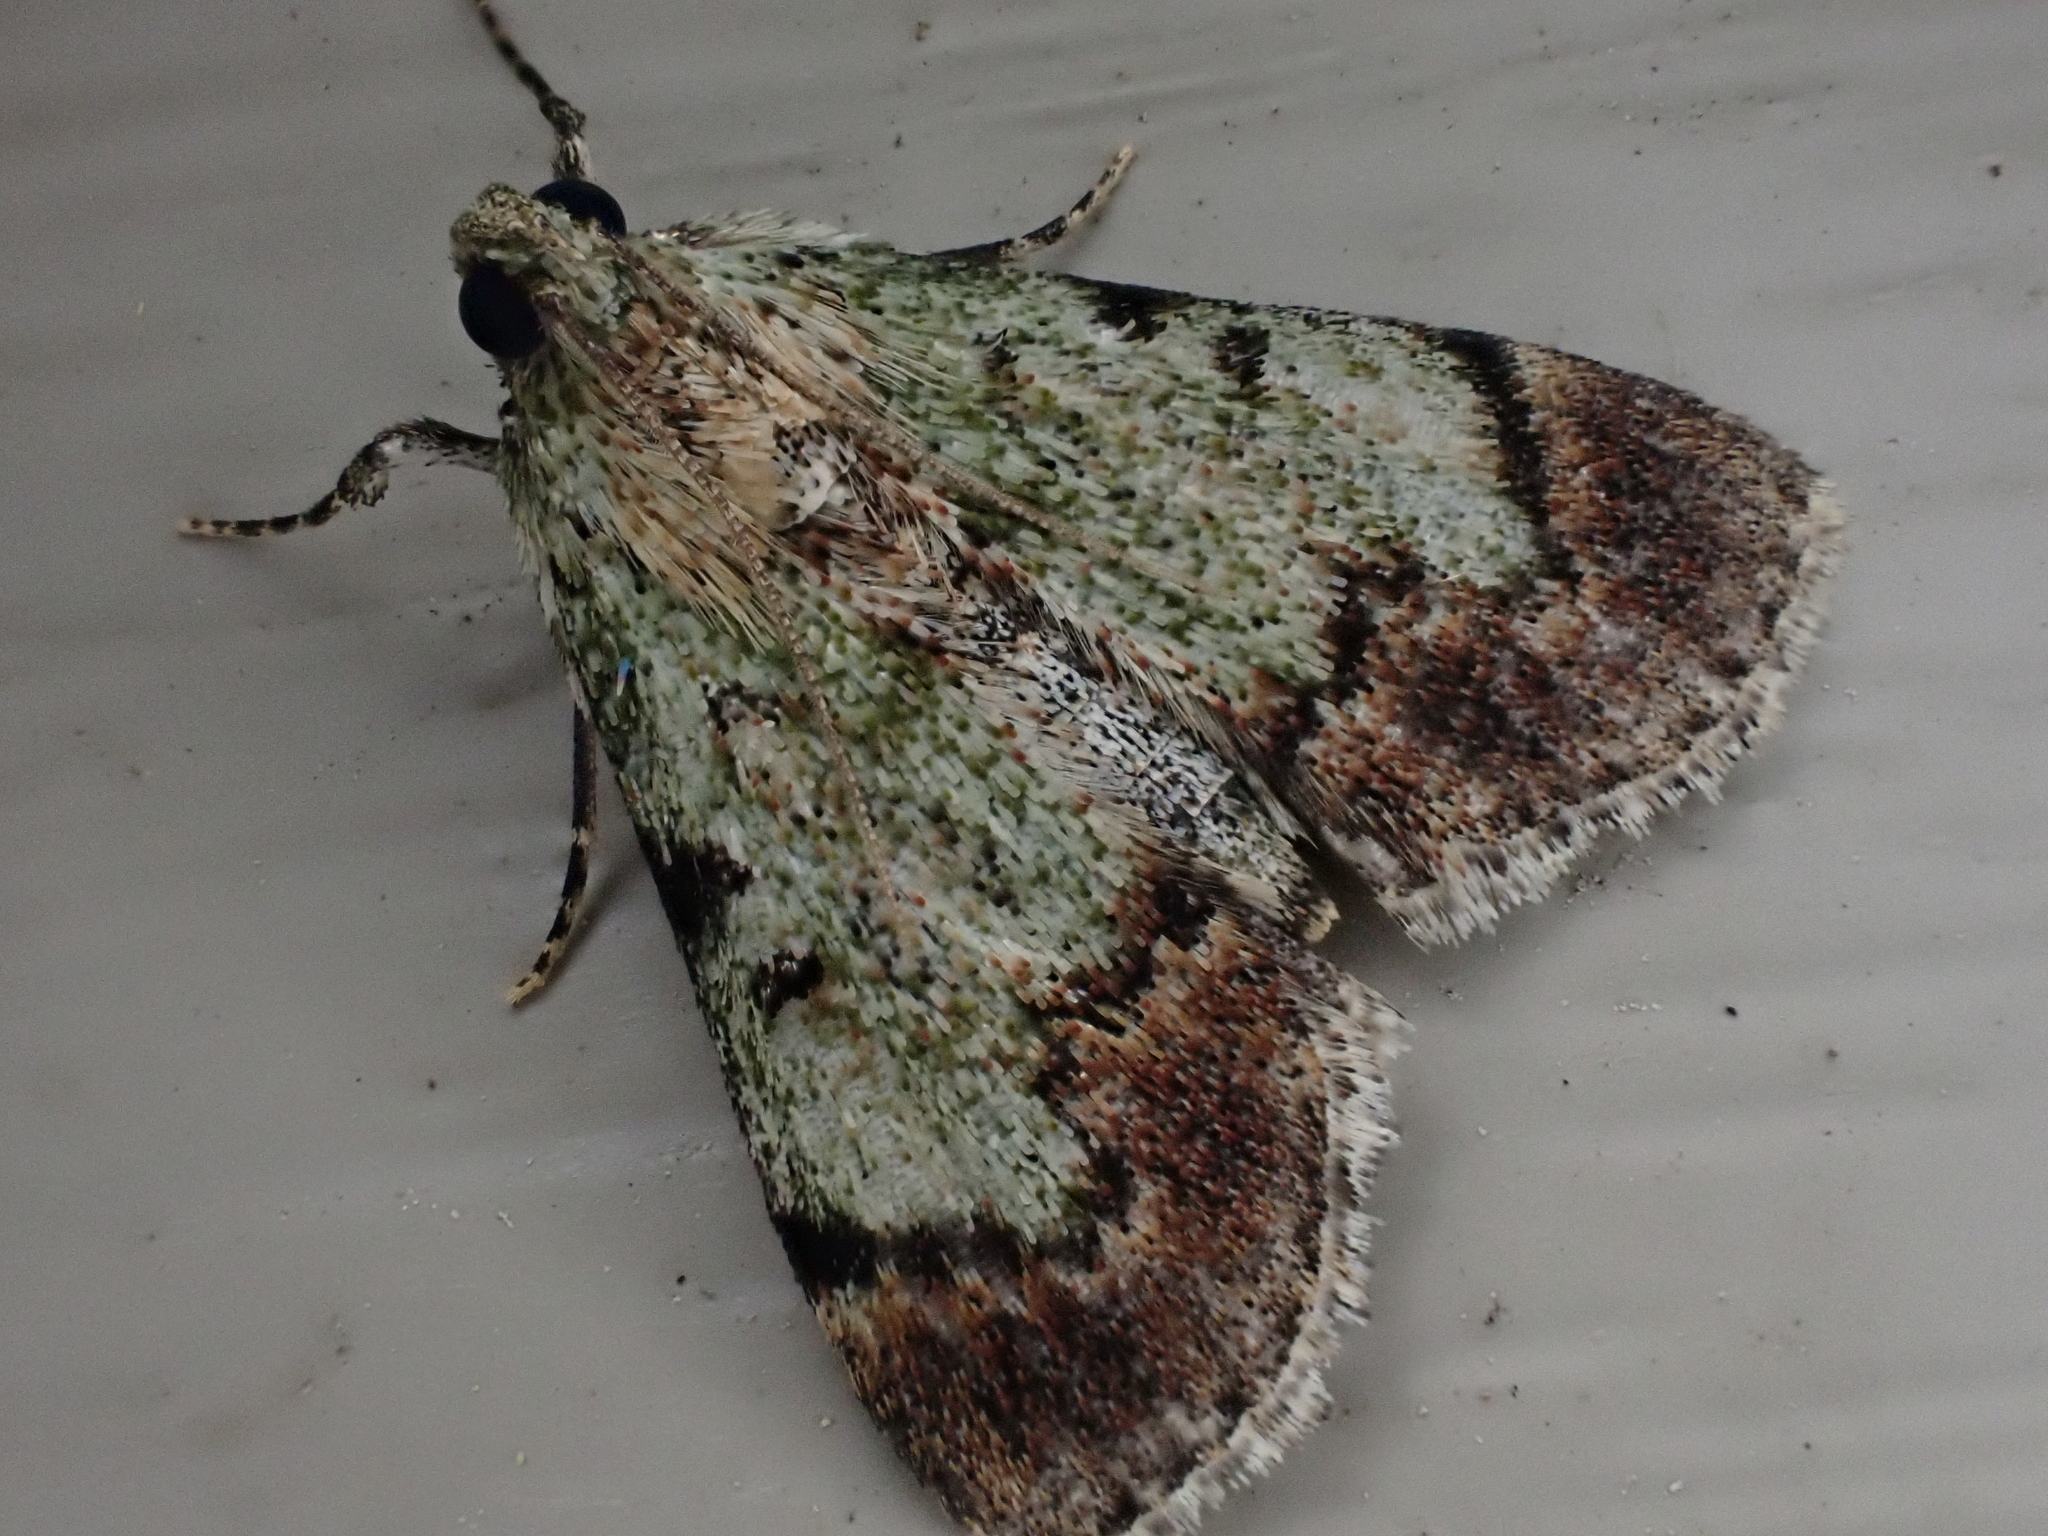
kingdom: Animalia
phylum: Arthropoda
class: Insecta
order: Lepidoptera
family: Pyralidae
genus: Epipaschia
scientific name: Epipaschia superatalis
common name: Dimorphic macalla moth
